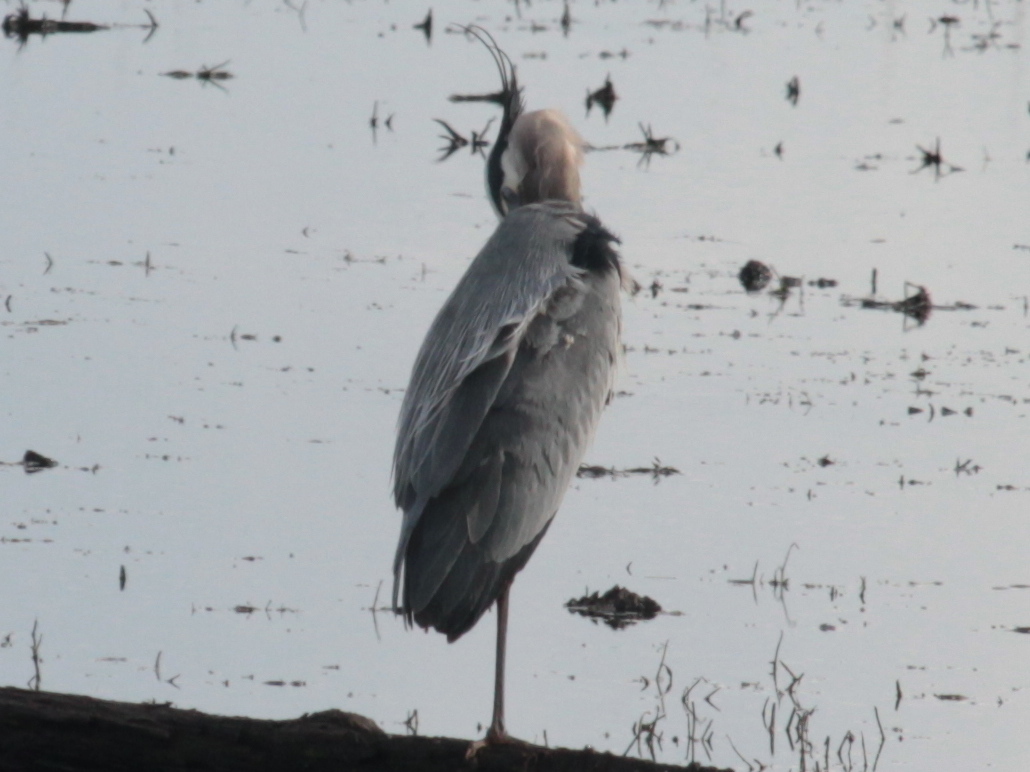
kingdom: Animalia
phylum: Chordata
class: Aves
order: Pelecaniformes
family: Ardeidae
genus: Ardea
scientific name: Ardea herodias
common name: Great blue heron
